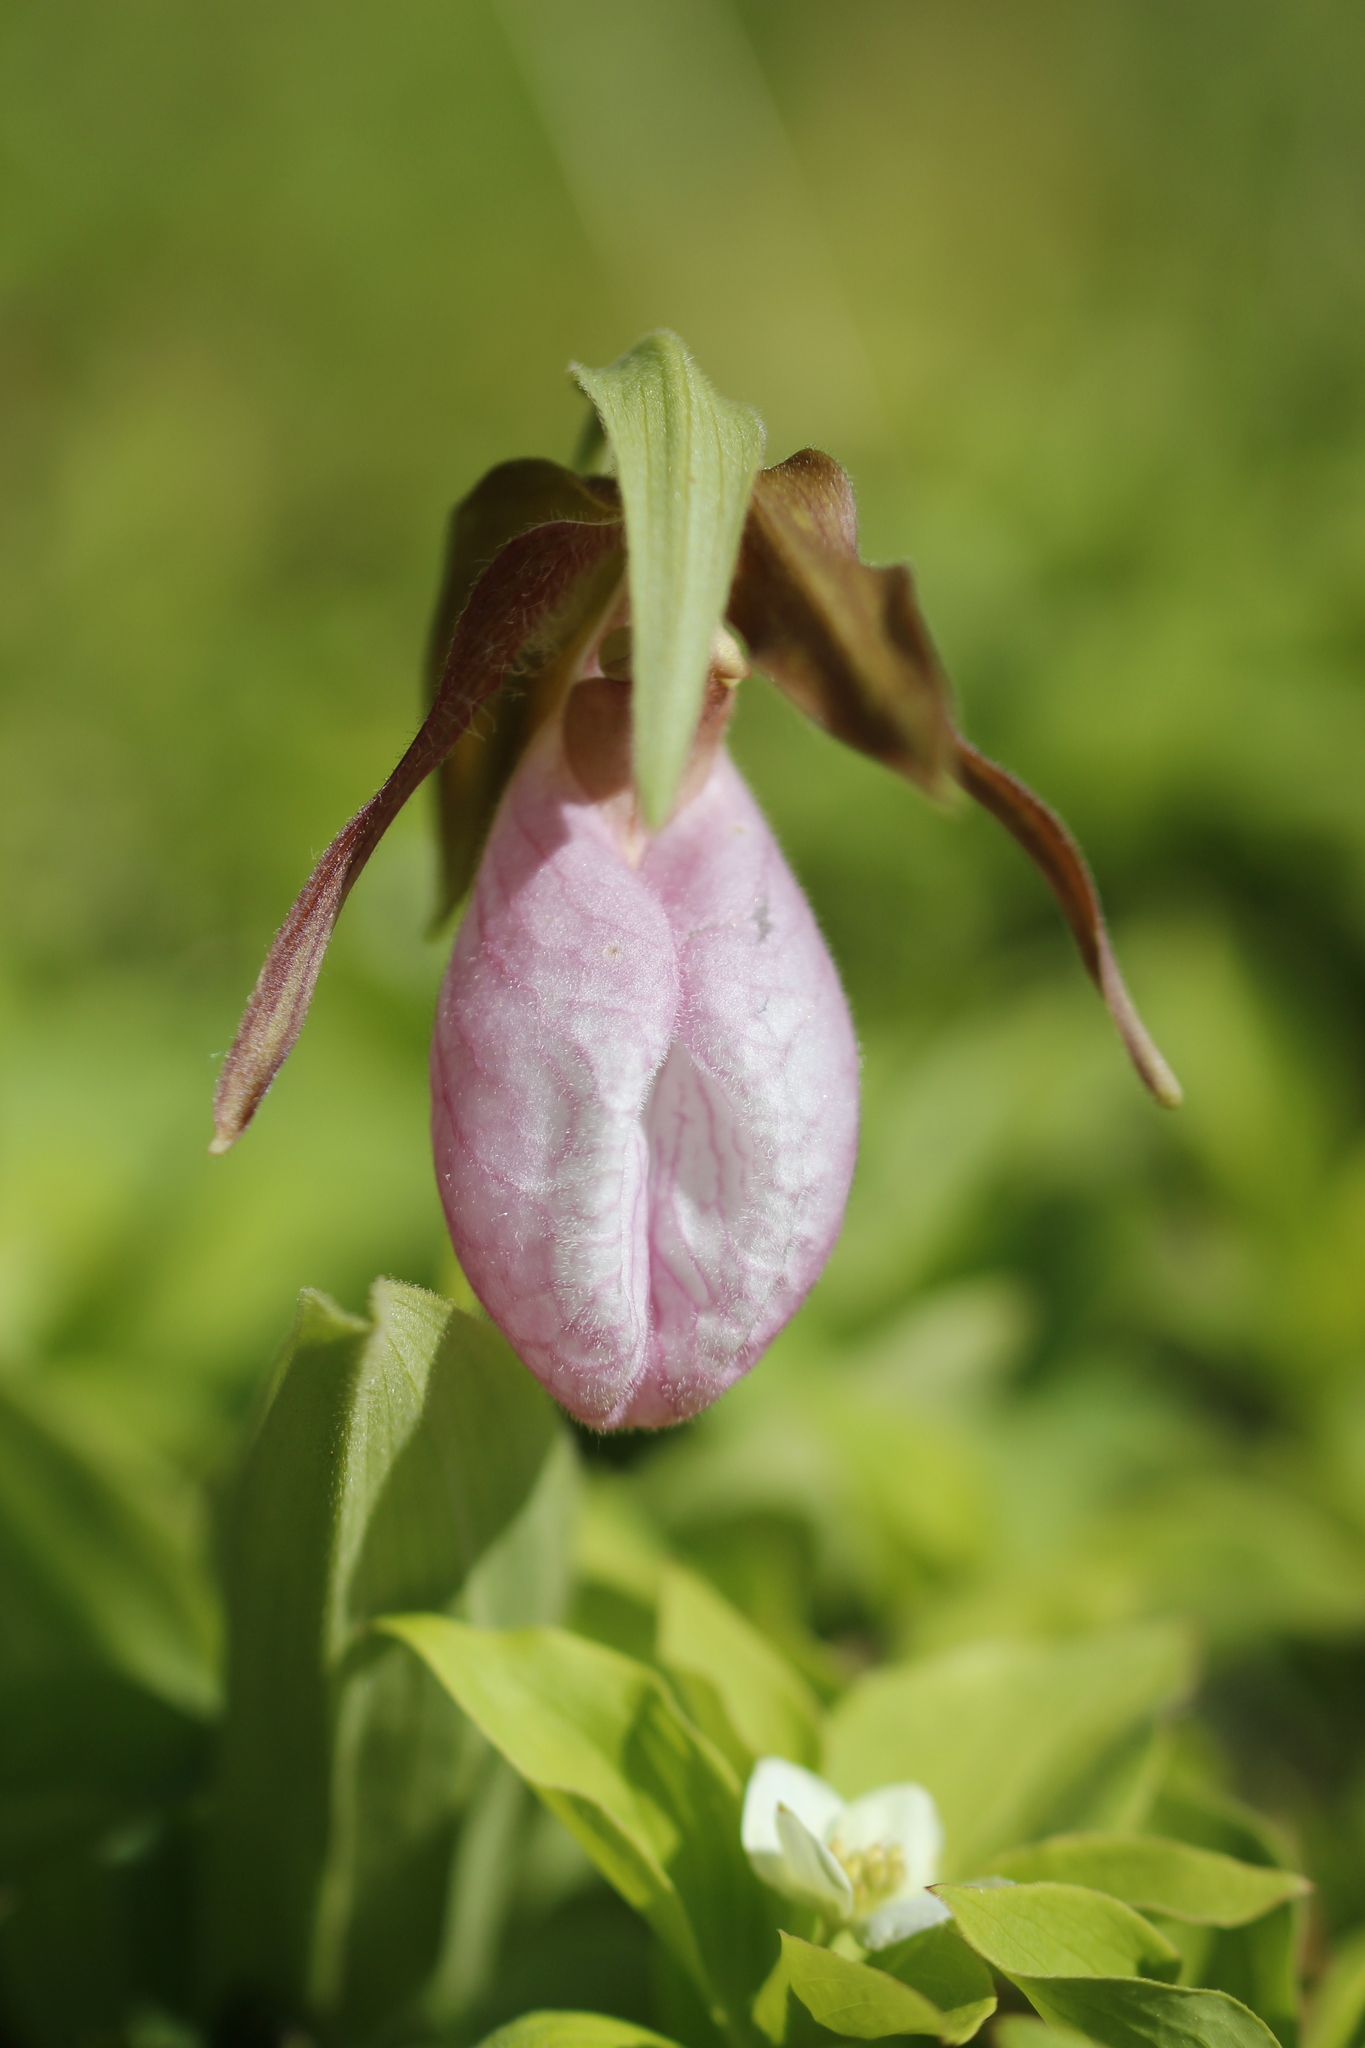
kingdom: Plantae
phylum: Tracheophyta
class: Liliopsida
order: Asparagales
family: Orchidaceae
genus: Cypripedium
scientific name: Cypripedium acaule
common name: Pink lady's-slipper
